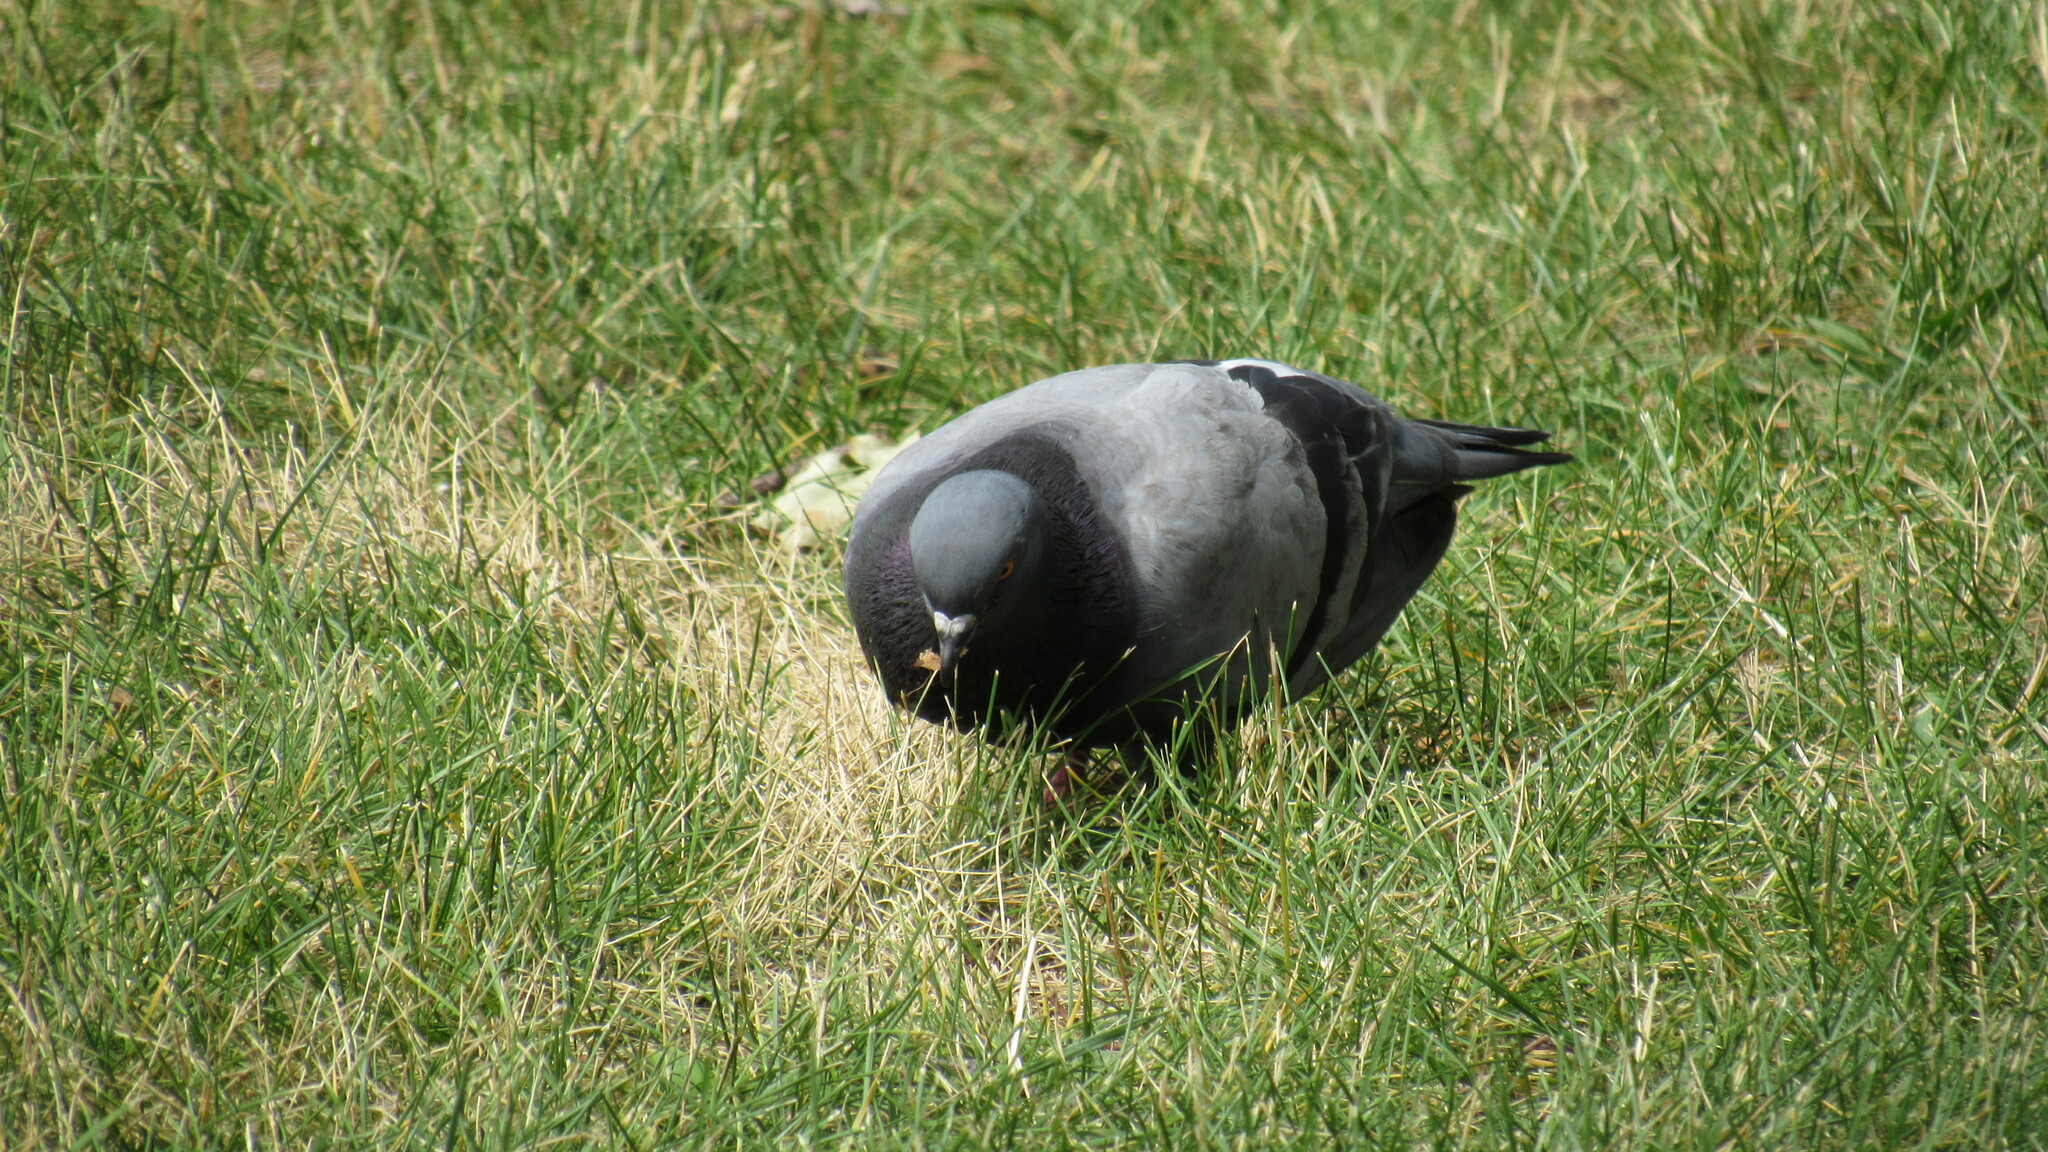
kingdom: Animalia
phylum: Chordata
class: Aves
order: Columbiformes
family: Columbidae
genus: Columba
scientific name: Columba livia
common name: Rock pigeon
